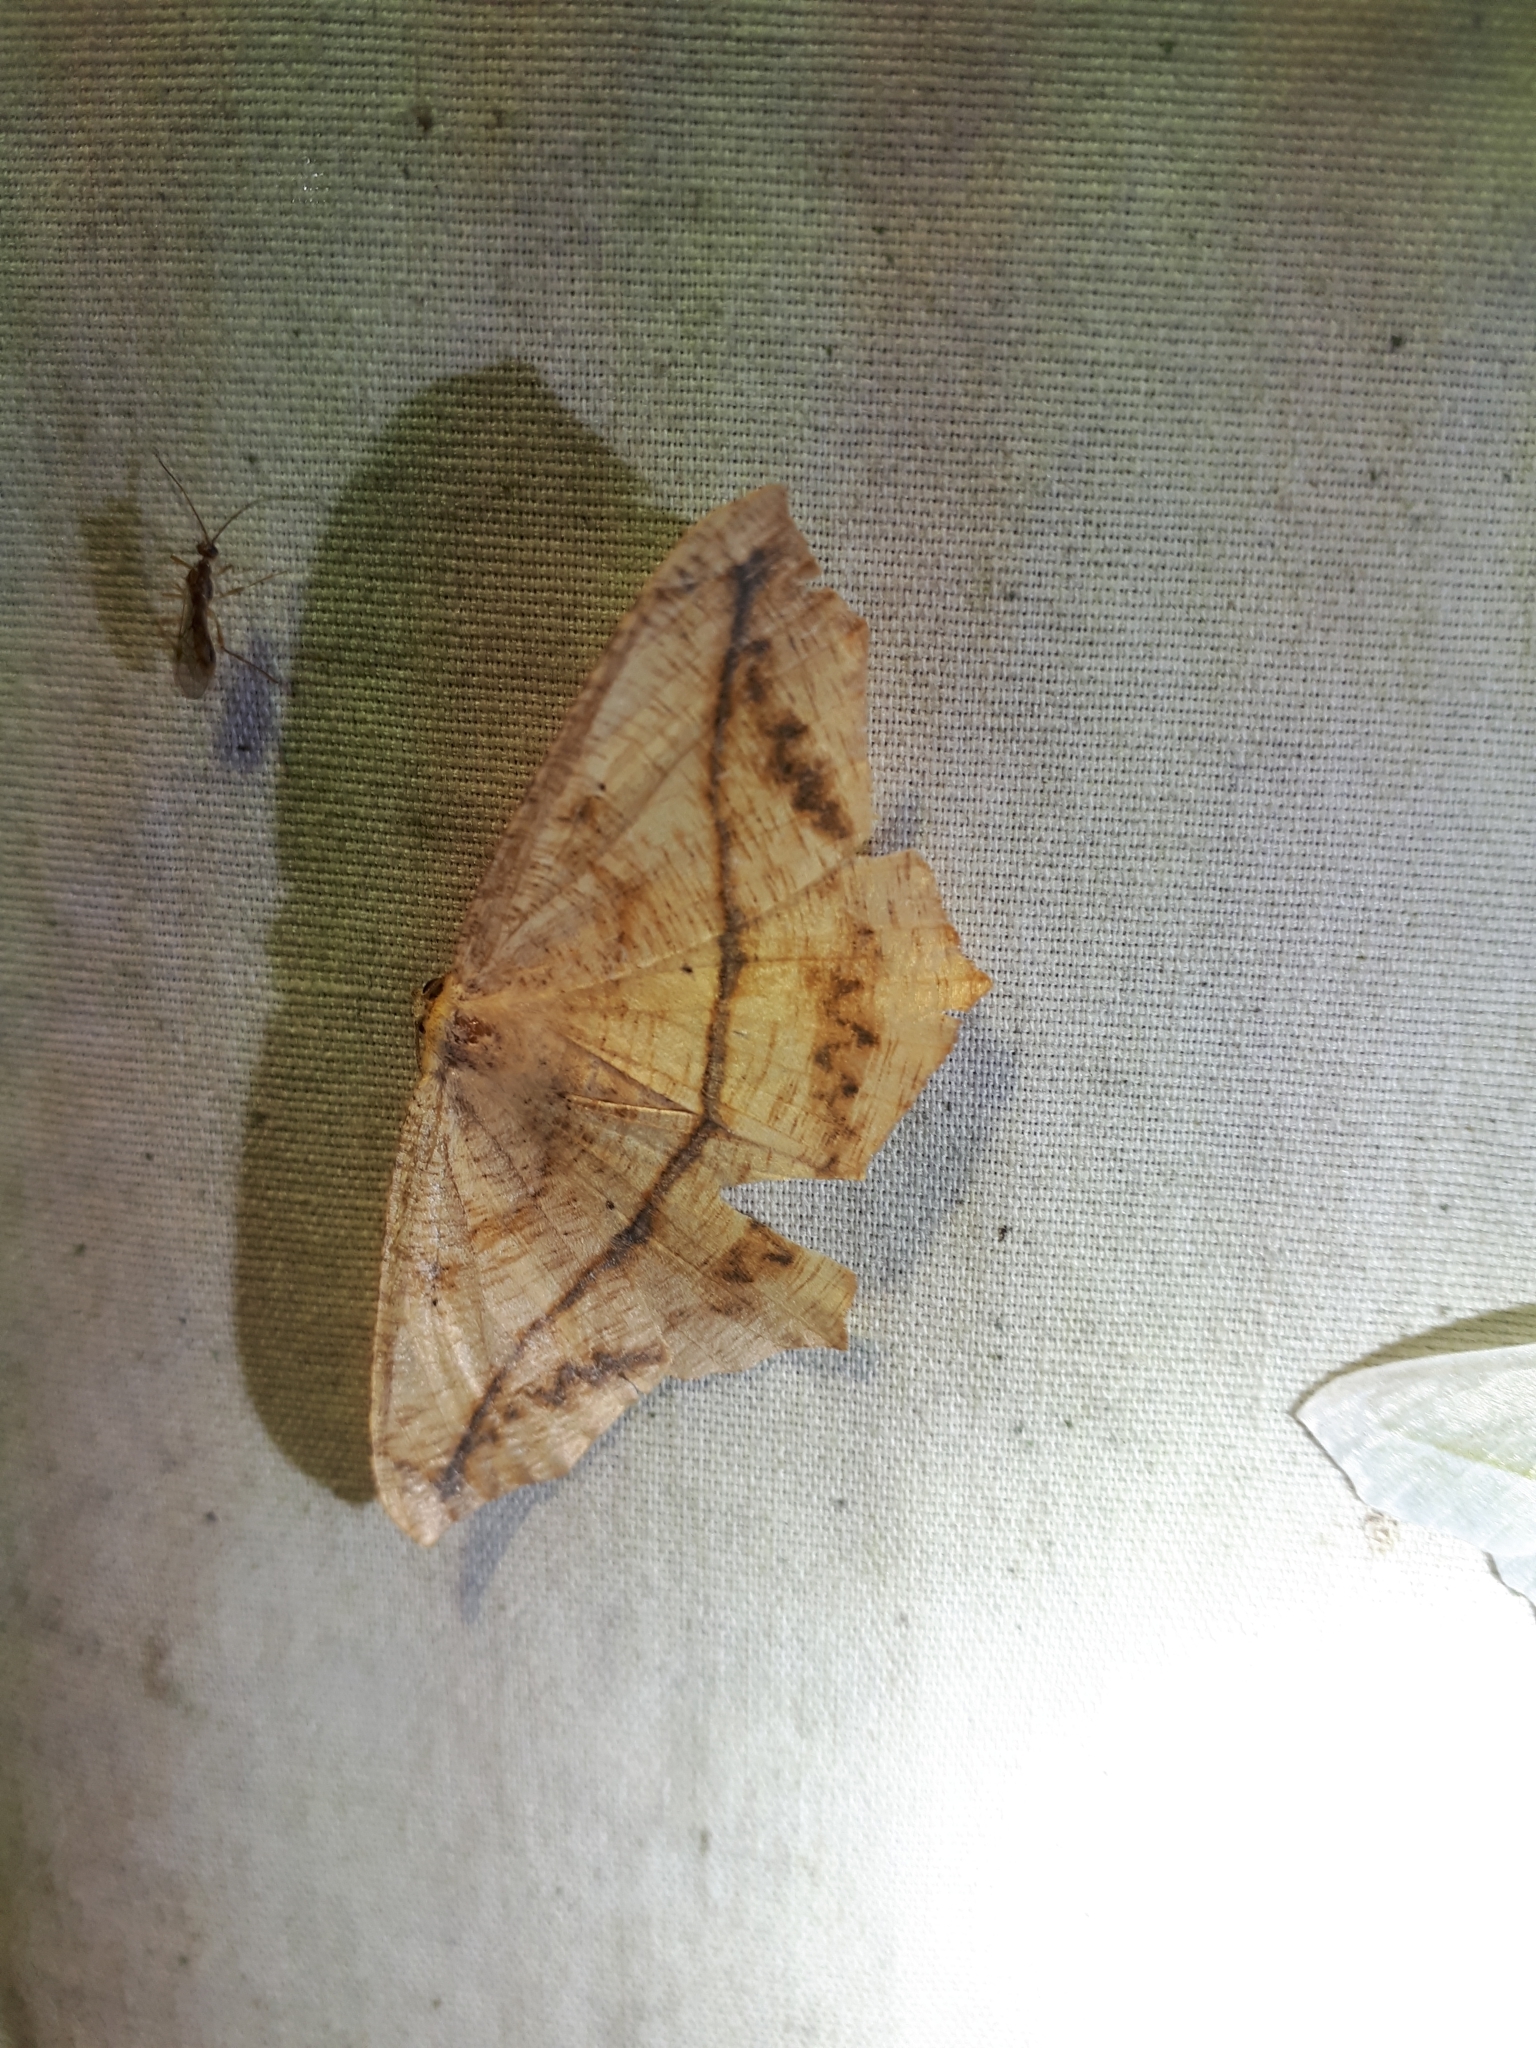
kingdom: Animalia
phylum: Arthropoda
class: Insecta
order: Lepidoptera
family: Geometridae
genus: Prochoerodes
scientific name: Prochoerodes lineola
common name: Large maple spanworm
